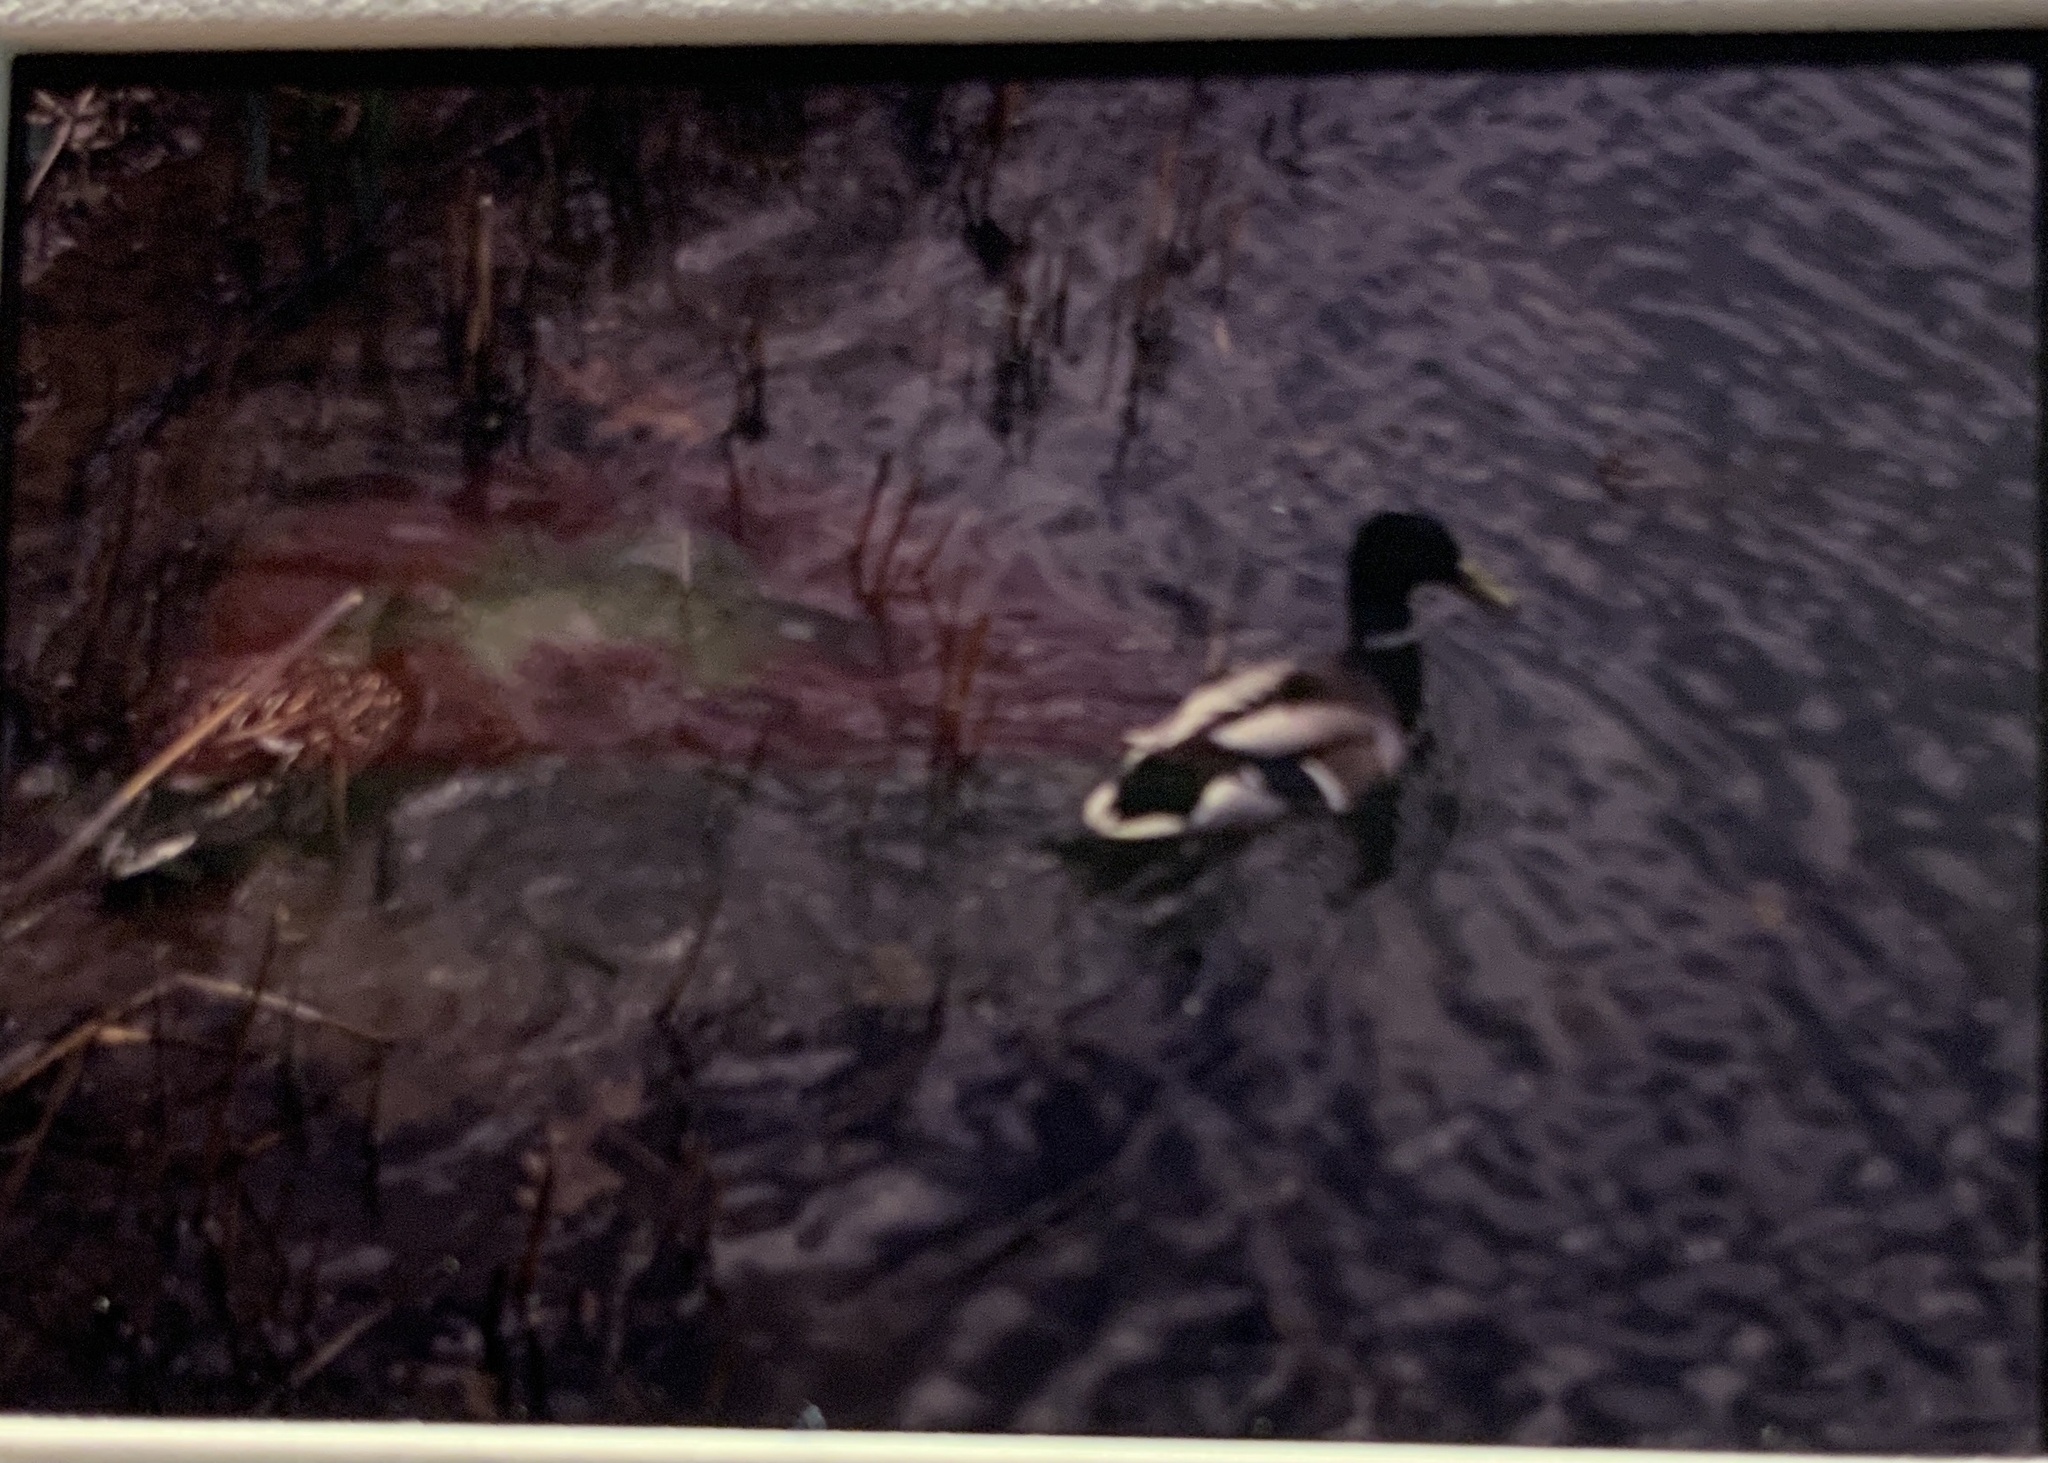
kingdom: Animalia
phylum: Chordata
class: Aves
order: Anseriformes
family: Anatidae
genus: Anas
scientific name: Anas platyrhynchos
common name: Mallard
